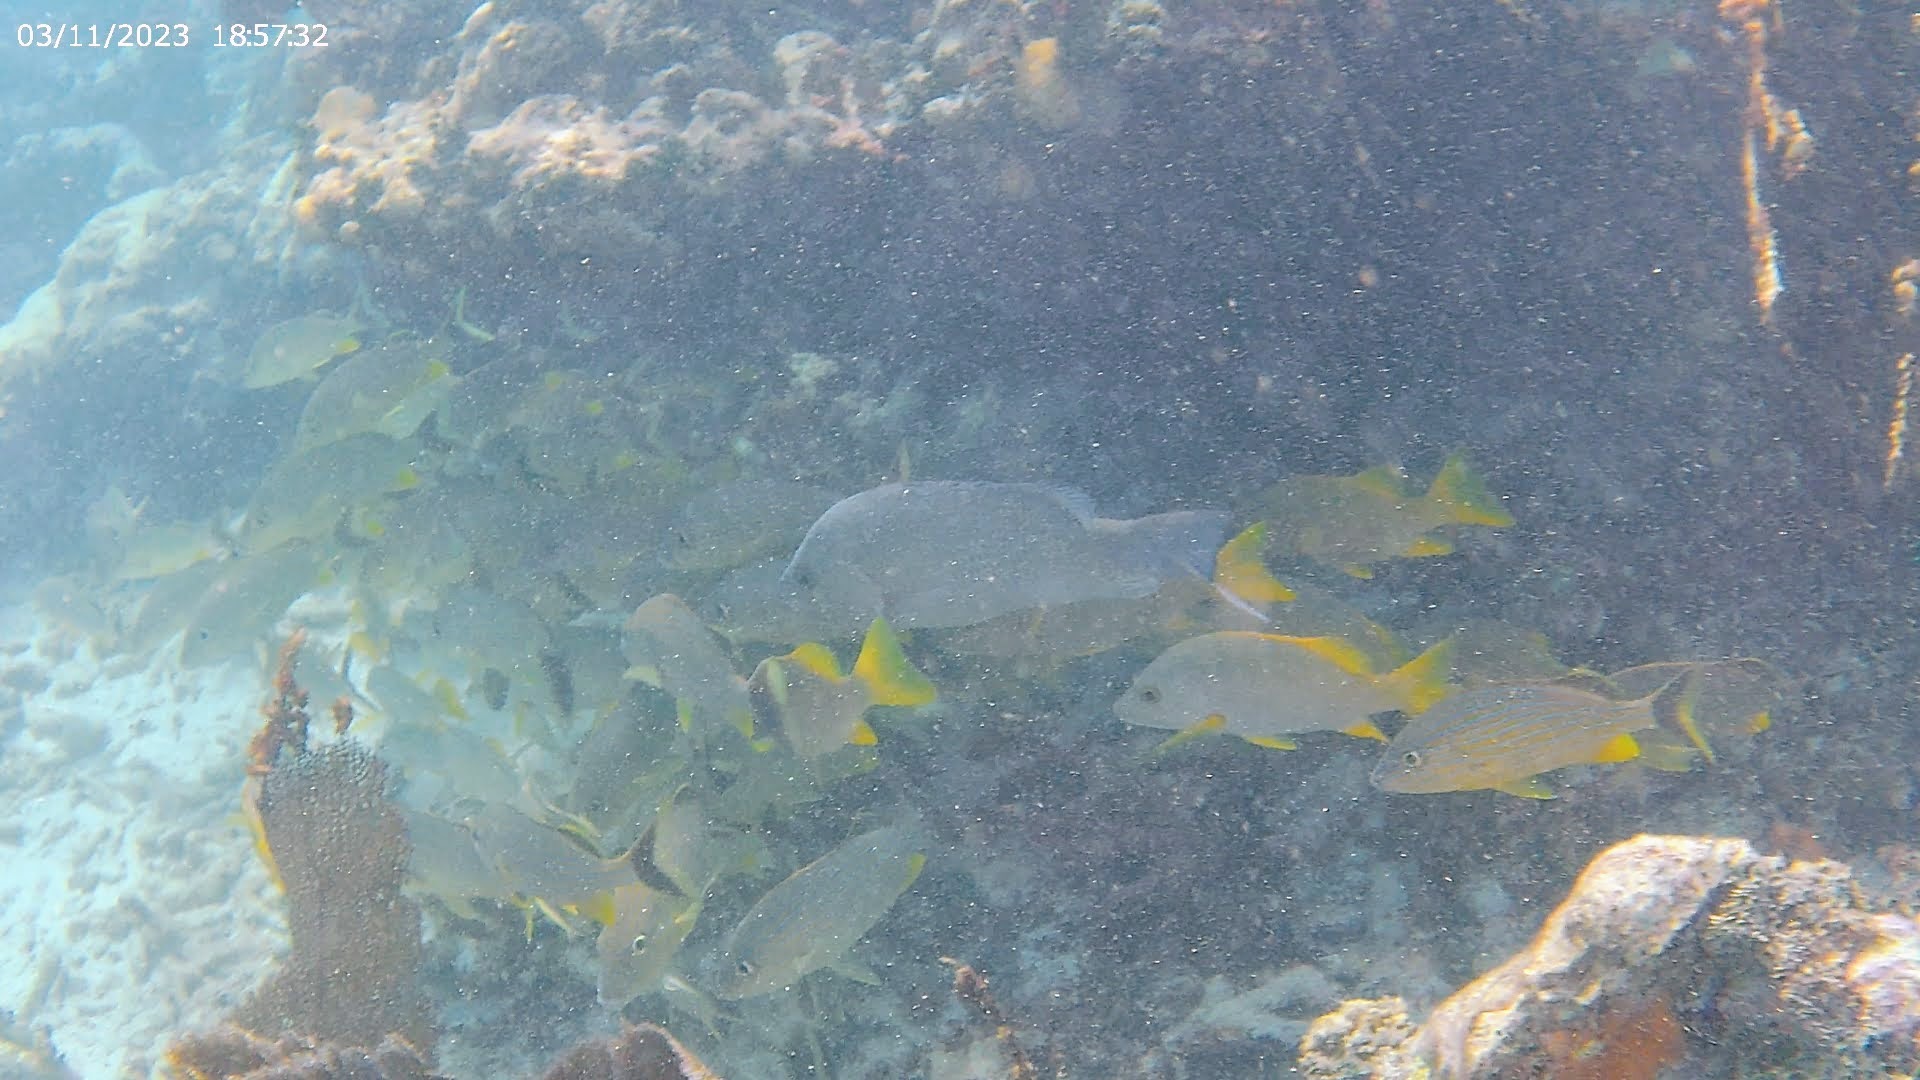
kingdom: Animalia
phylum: Chordata
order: Perciformes
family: Lutjanidae
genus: Lutjanus
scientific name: Lutjanus griseus
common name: Gray snapper
